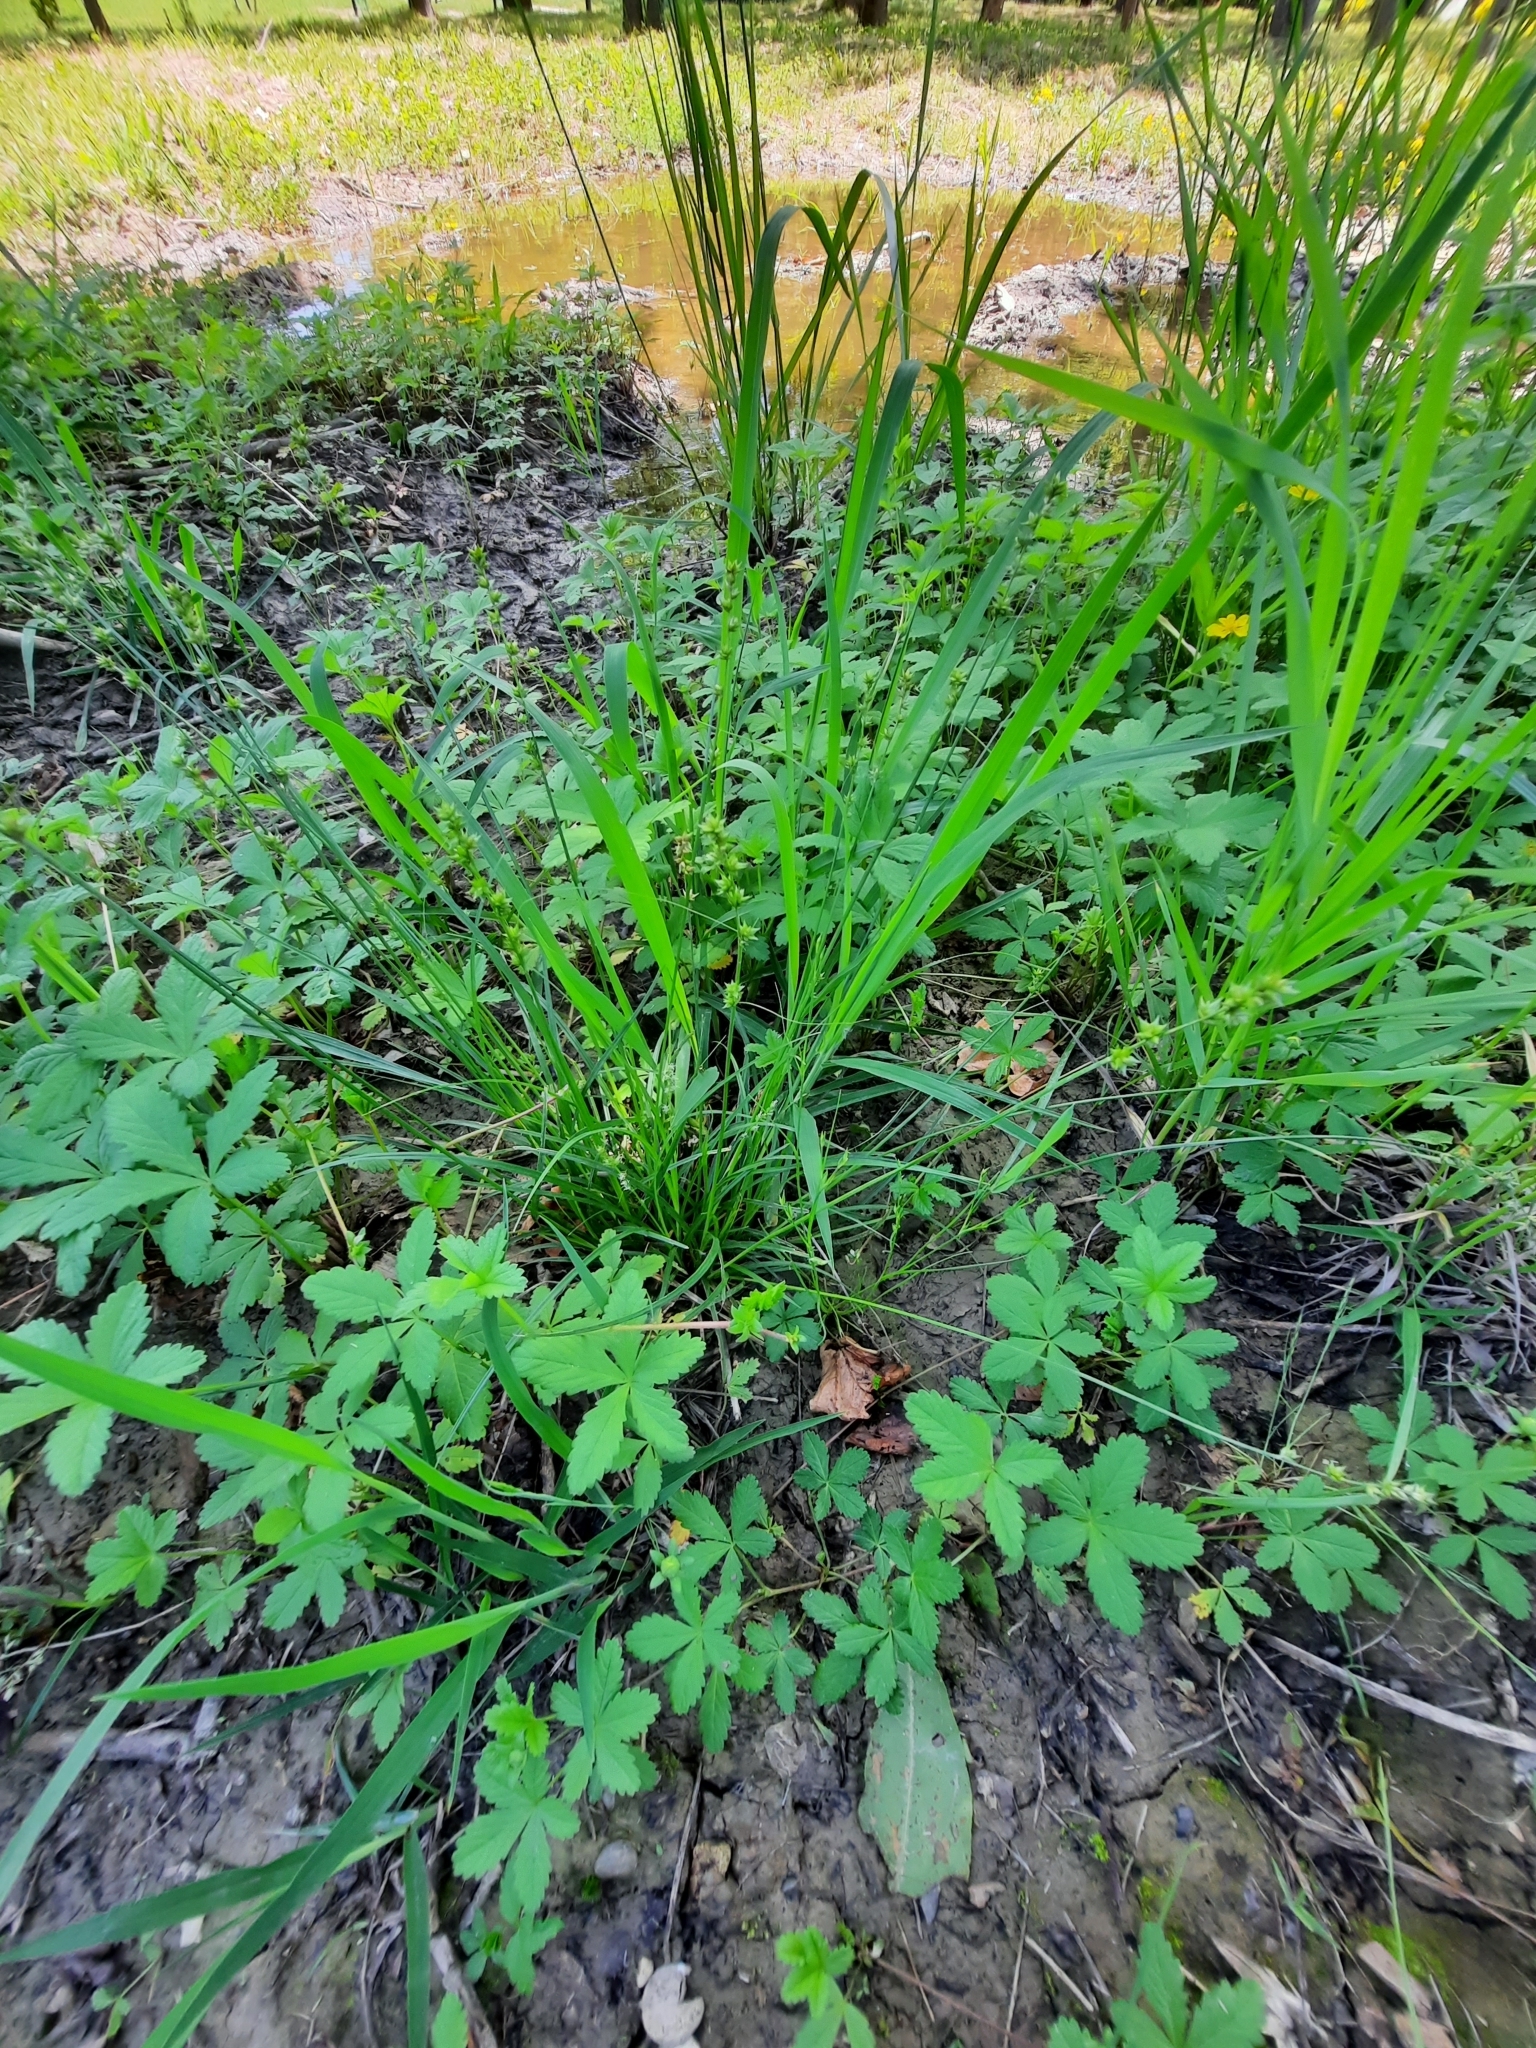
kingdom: Plantae
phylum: Tracheophyta
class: Magnoliopsida
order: Rosales
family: Rosaceae
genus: Potentilla
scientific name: Potentilla reptans
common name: Creeping cinquefoil
